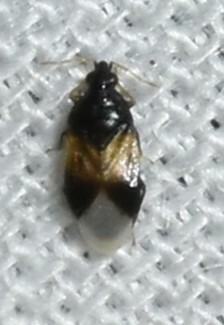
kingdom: Animalia
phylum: Arthropoda
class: Insecta
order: Hemiptera
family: Anthocoridae
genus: Orius
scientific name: Orius insidiosus
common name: Insidious flower bug
